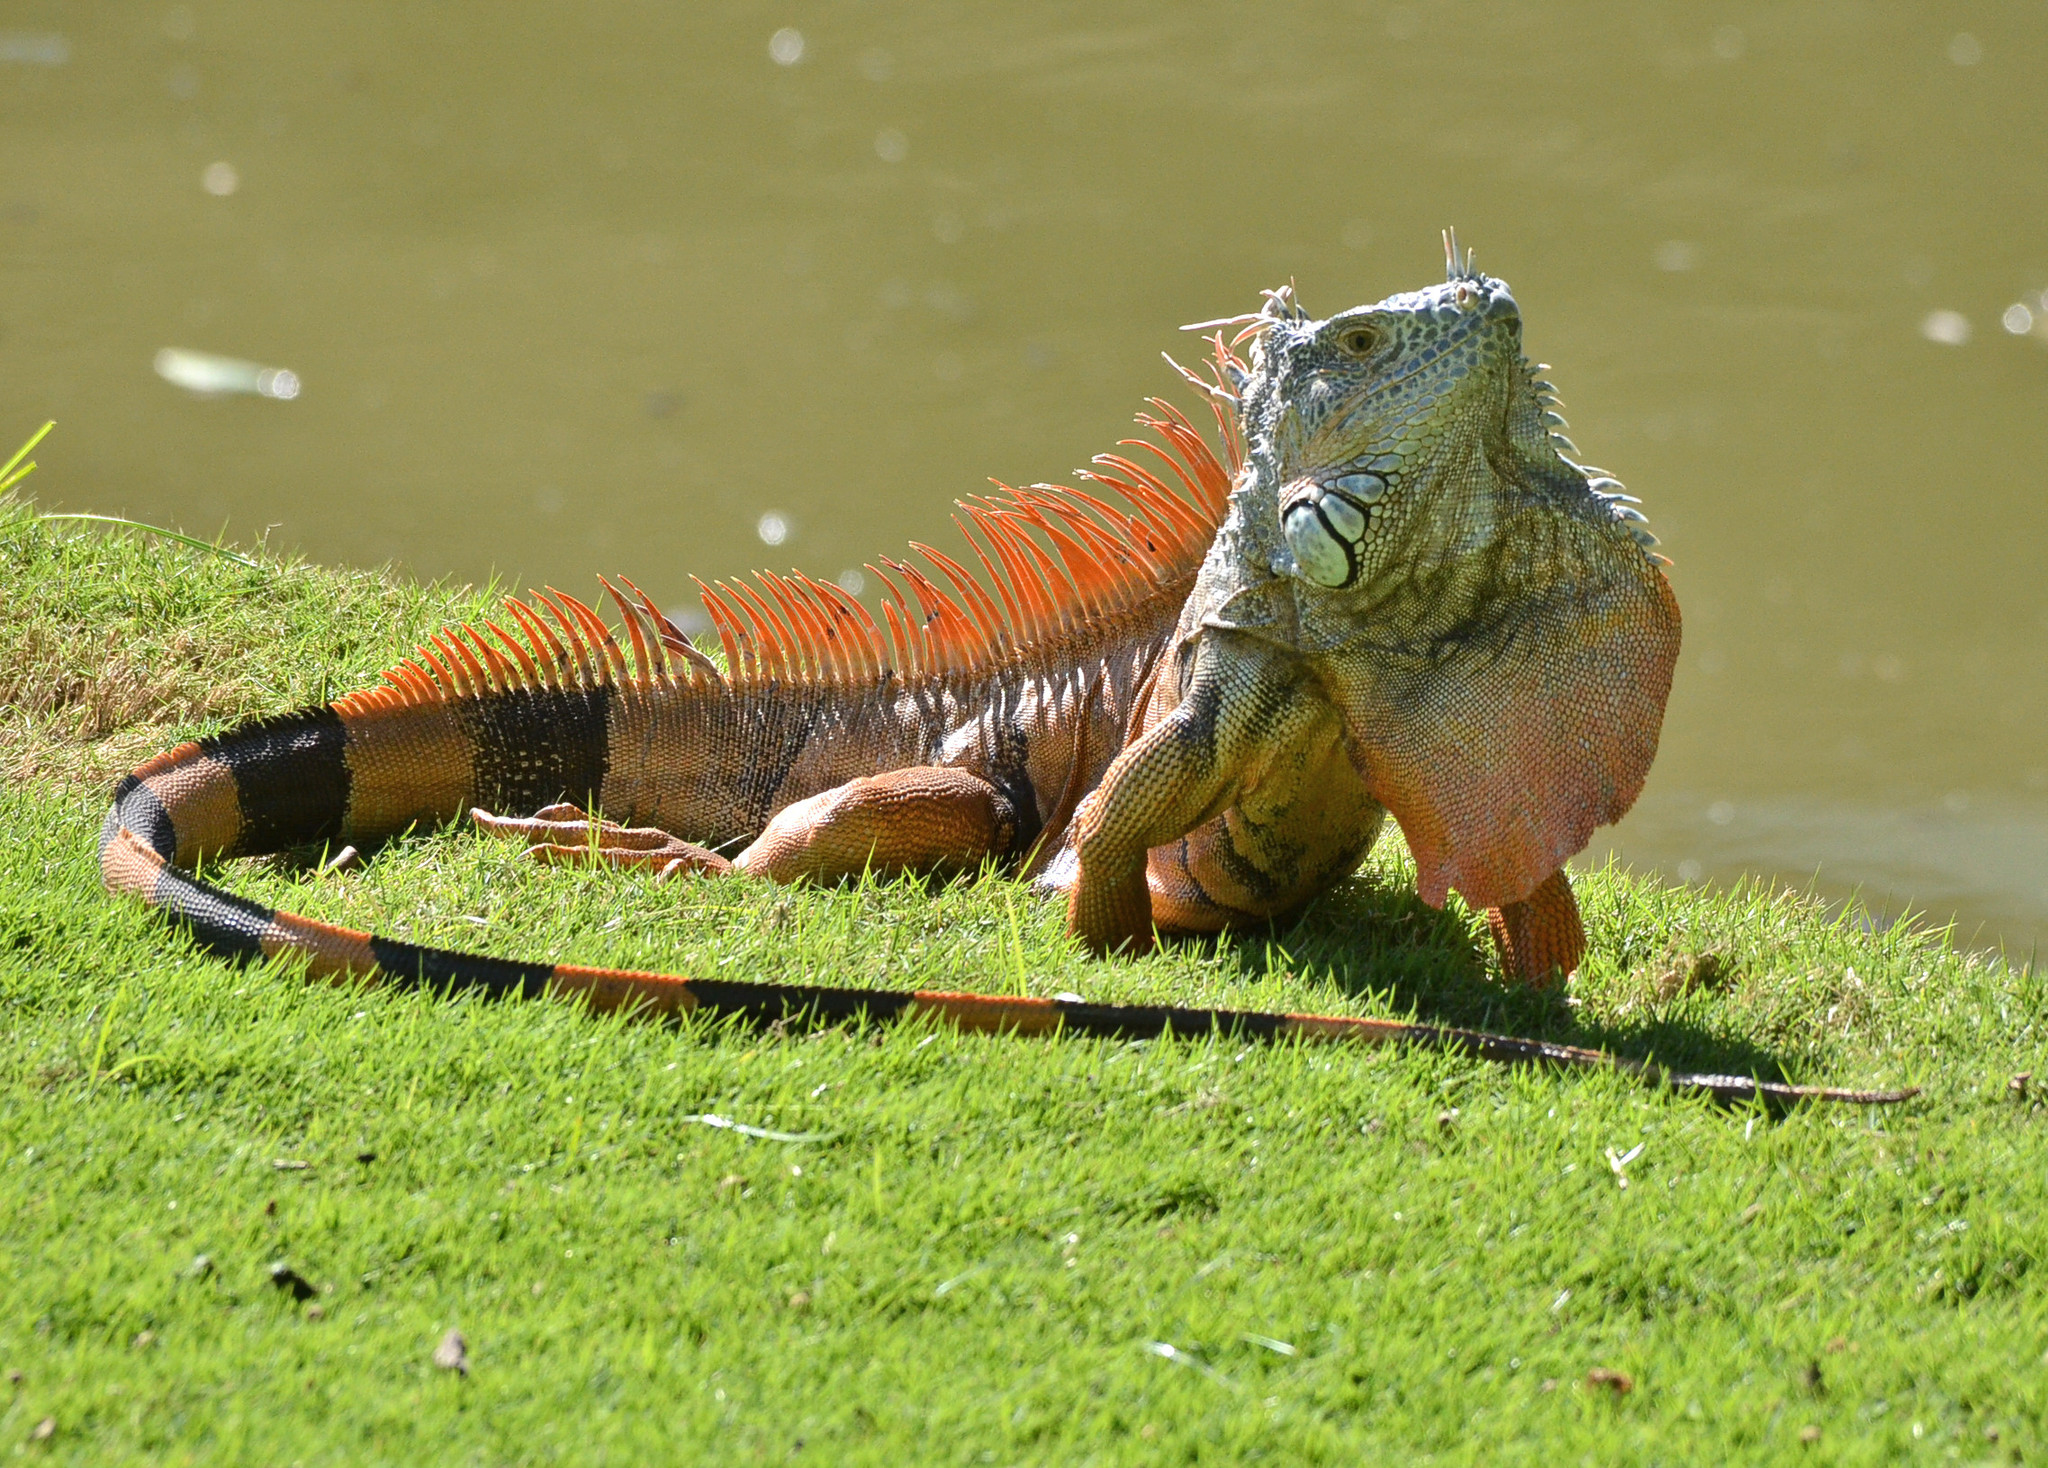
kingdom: Animalia
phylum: Chordata
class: Squamata
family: Iguanidae
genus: Iguana
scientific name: Iguana iguana
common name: Green iguana
